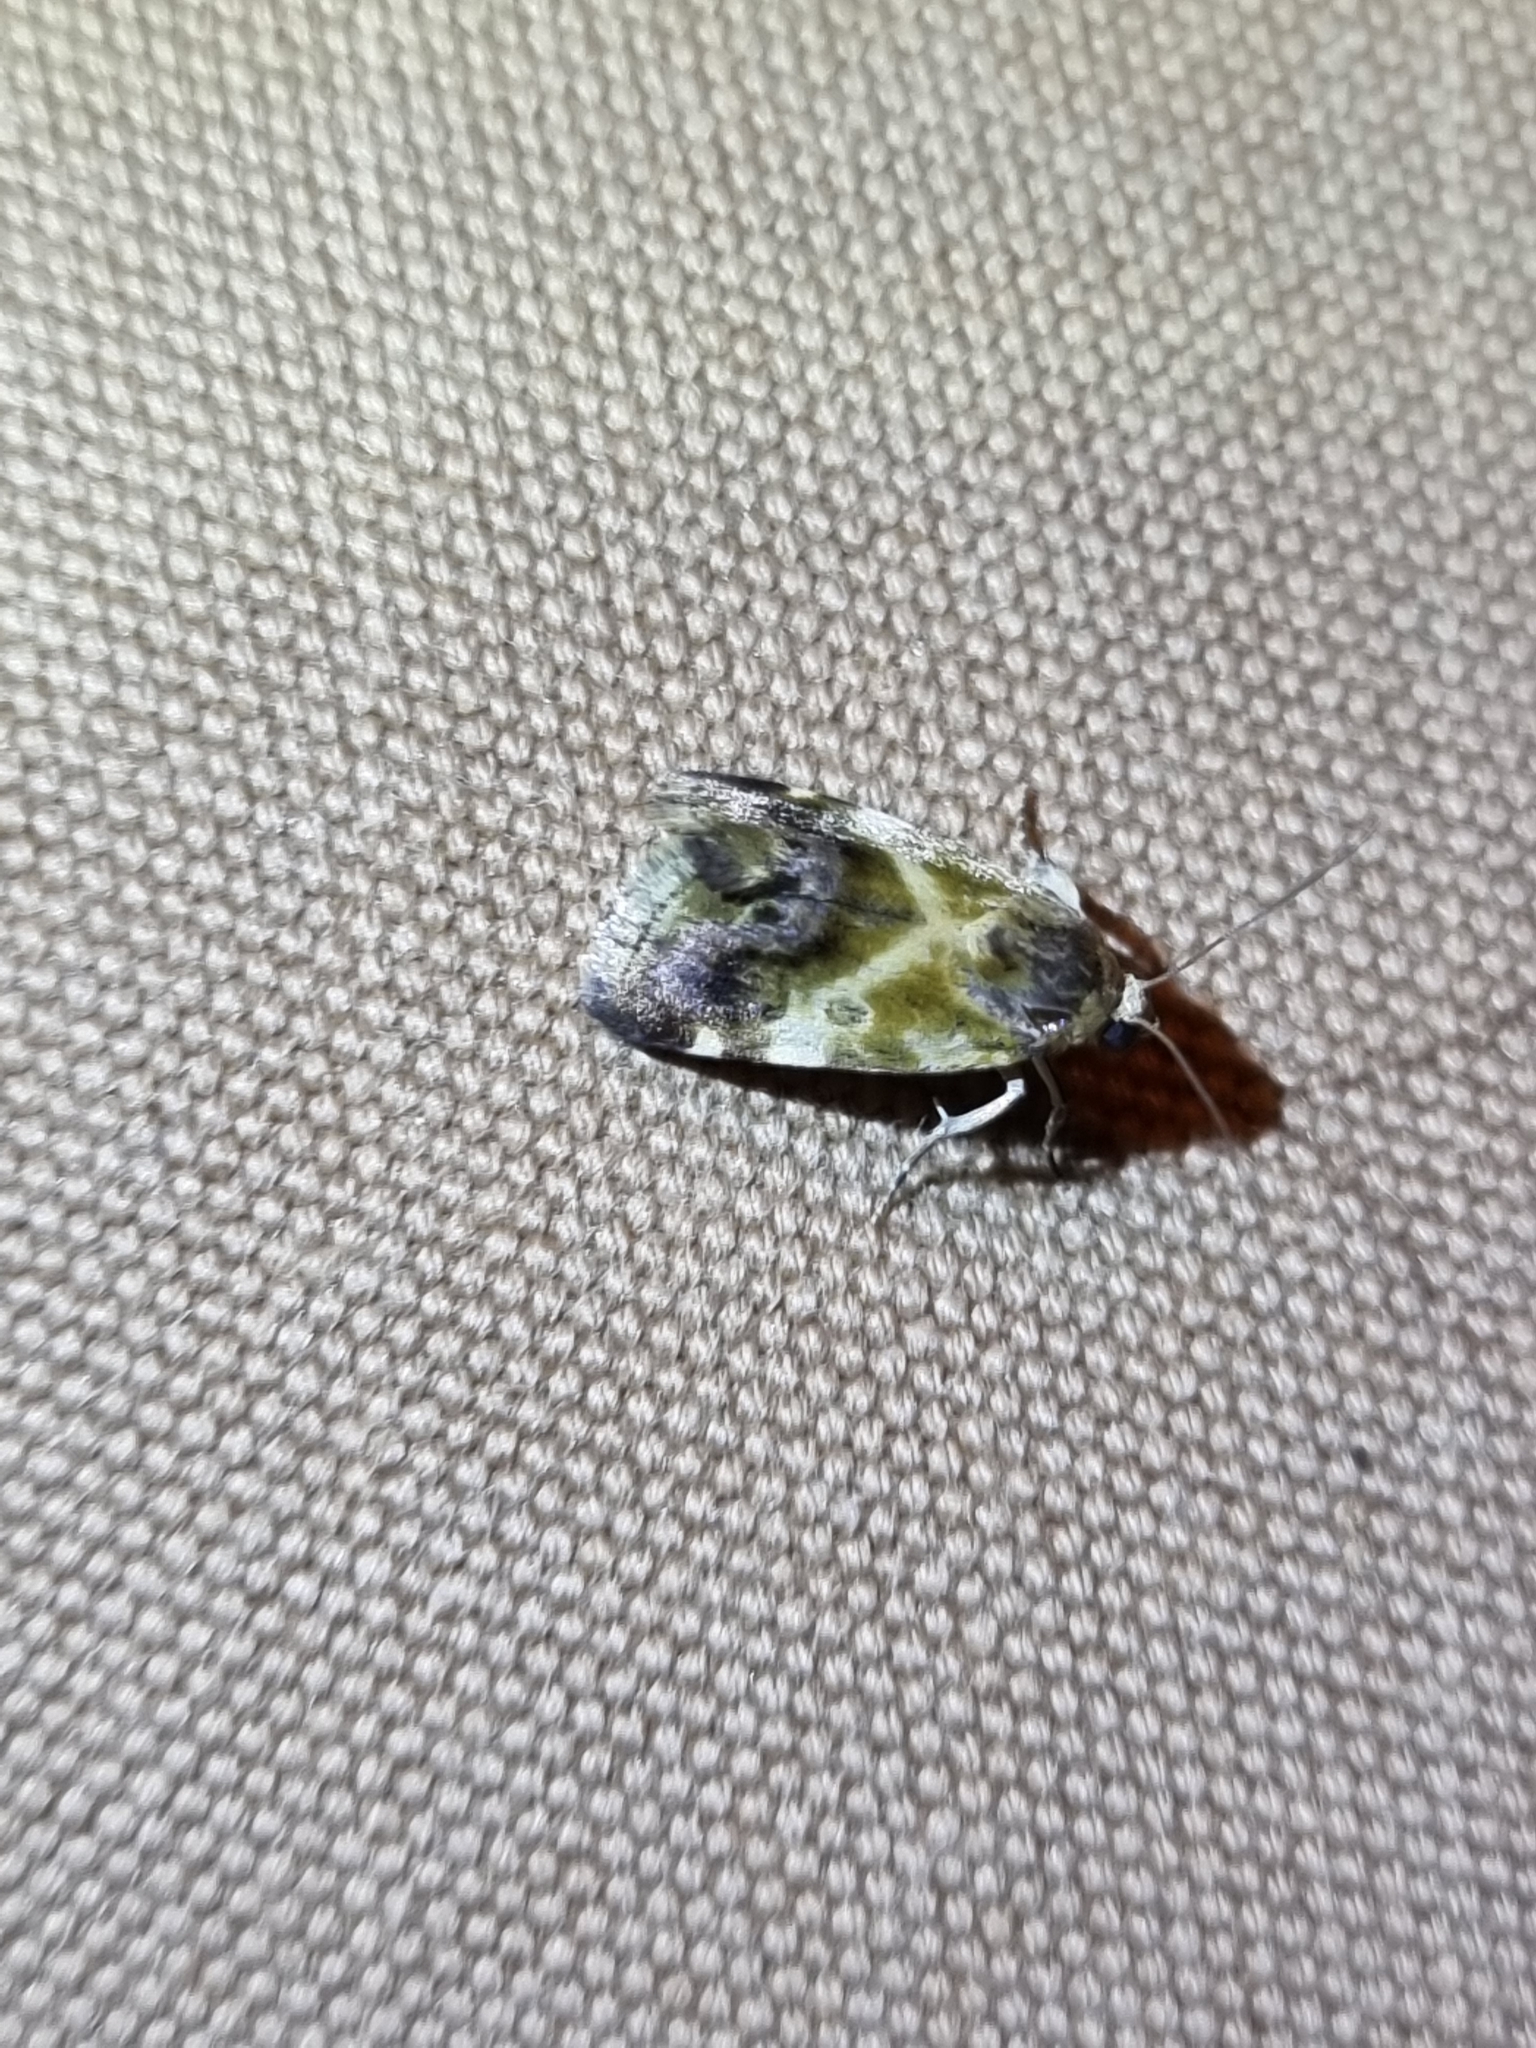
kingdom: Animalia
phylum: Arthropoda
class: Insecta
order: Lepidoptera
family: Noctuidae
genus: Acontia
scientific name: Acontia detrita
